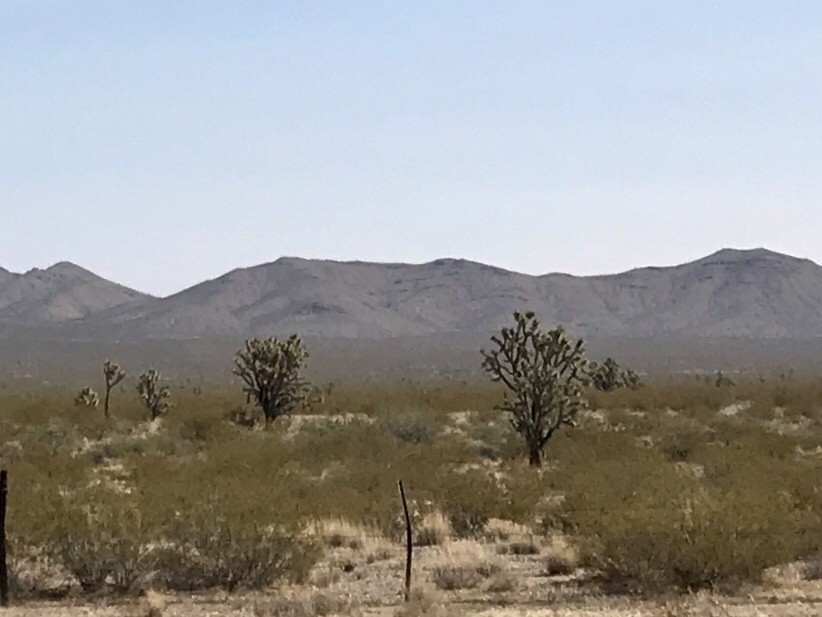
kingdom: Plantae
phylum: Tracheophyta
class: Liliopsida
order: Asparagales
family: Asparagaceae
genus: Yucca
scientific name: Yucca brevifolia
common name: Joshua tree
